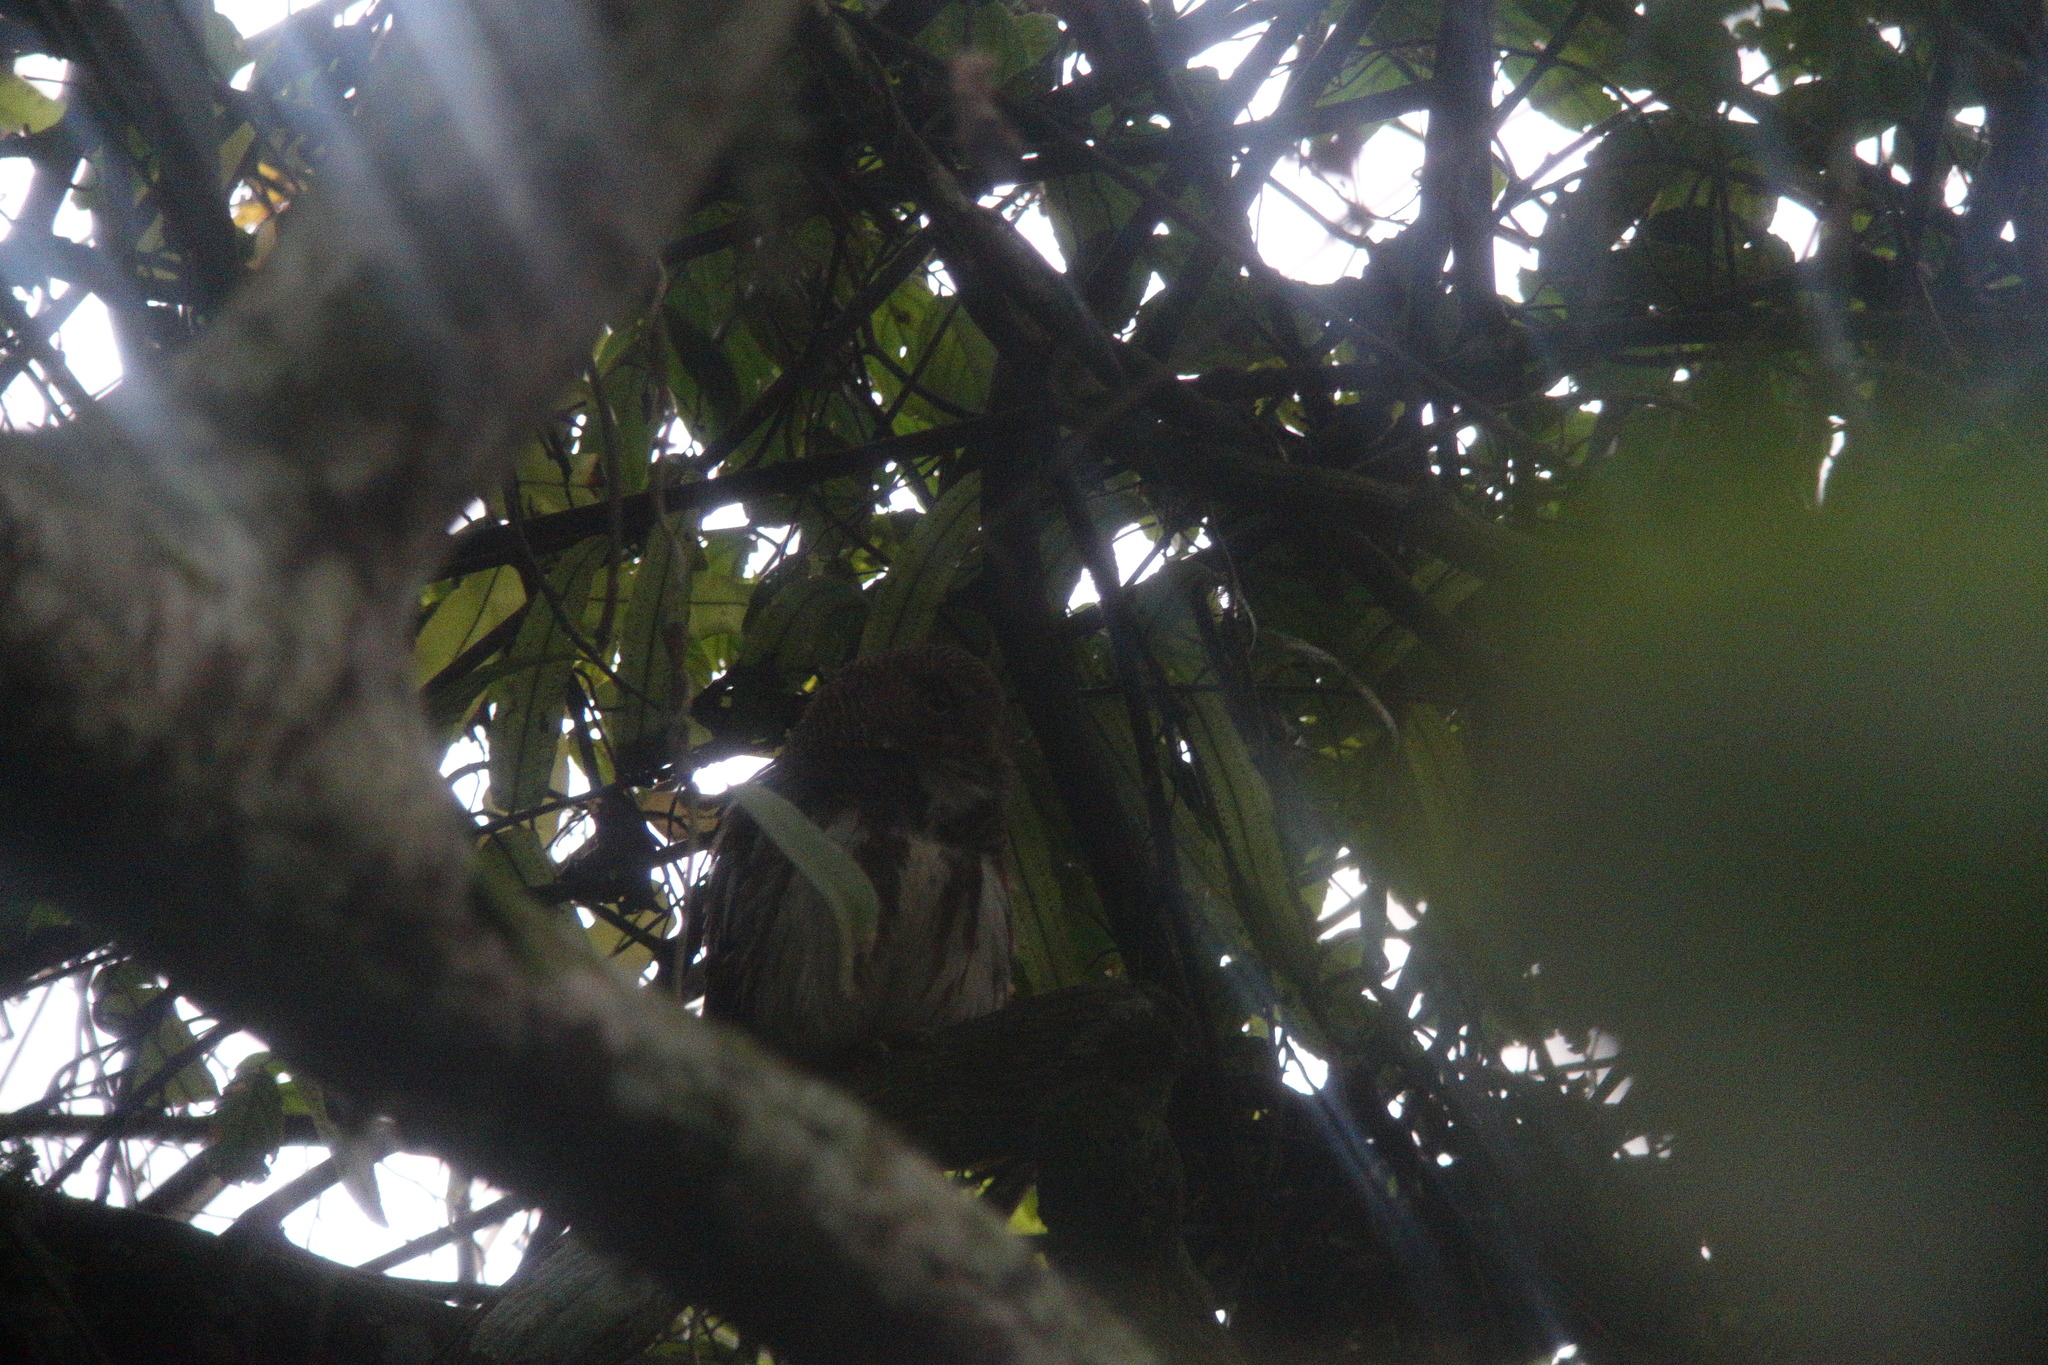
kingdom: Animalia
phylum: Chordata
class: Aves
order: Strigiformes
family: Strigidae
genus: Glaucidium
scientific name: Glaucidium castanopterum
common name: Javan owlet
